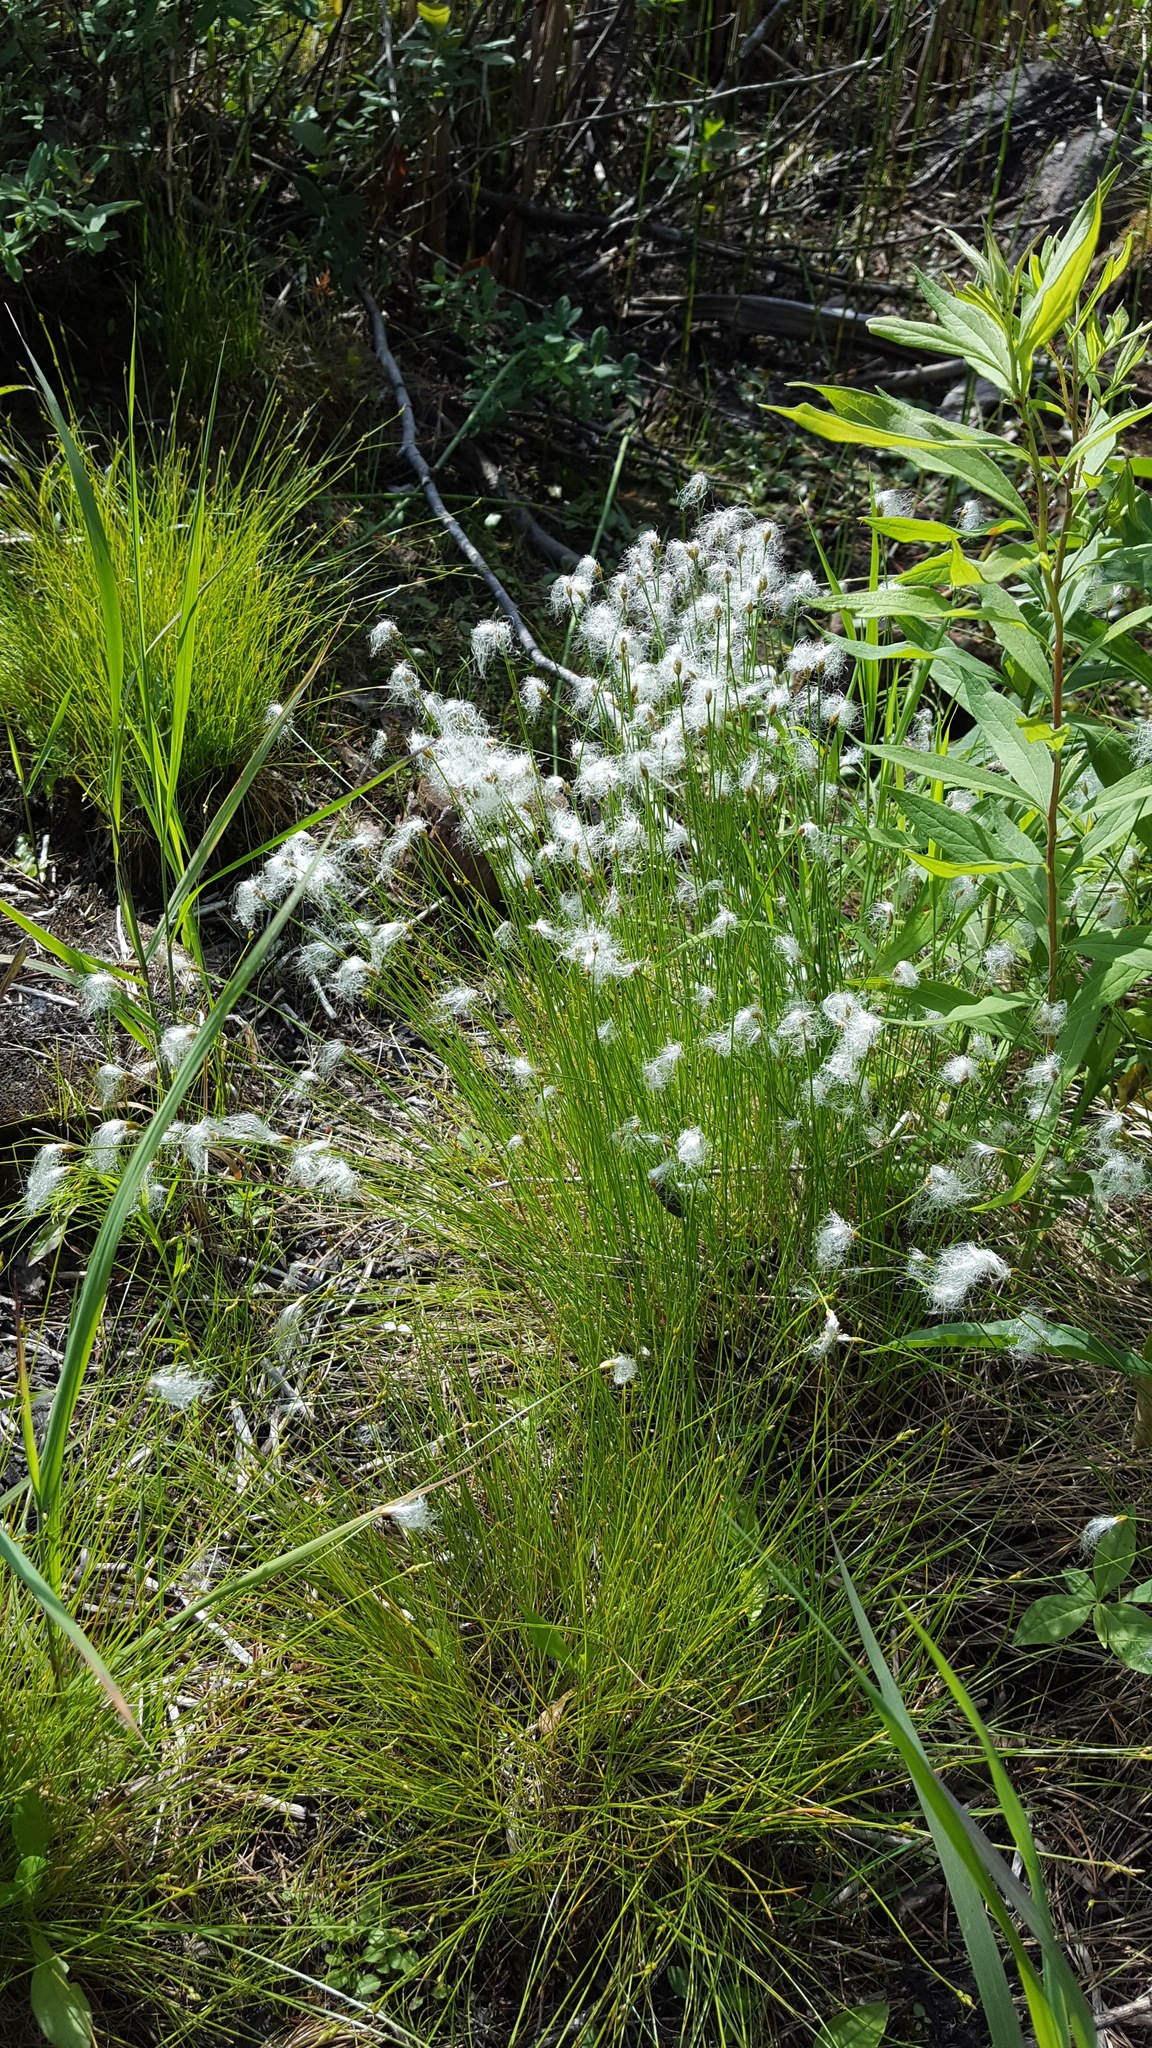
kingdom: Plantae
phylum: Tracheophyta
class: Liliopsida
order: Poales
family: Cyperaceae
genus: Trichophorum
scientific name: Trichophorum alpinum
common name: Alpine bulrush
